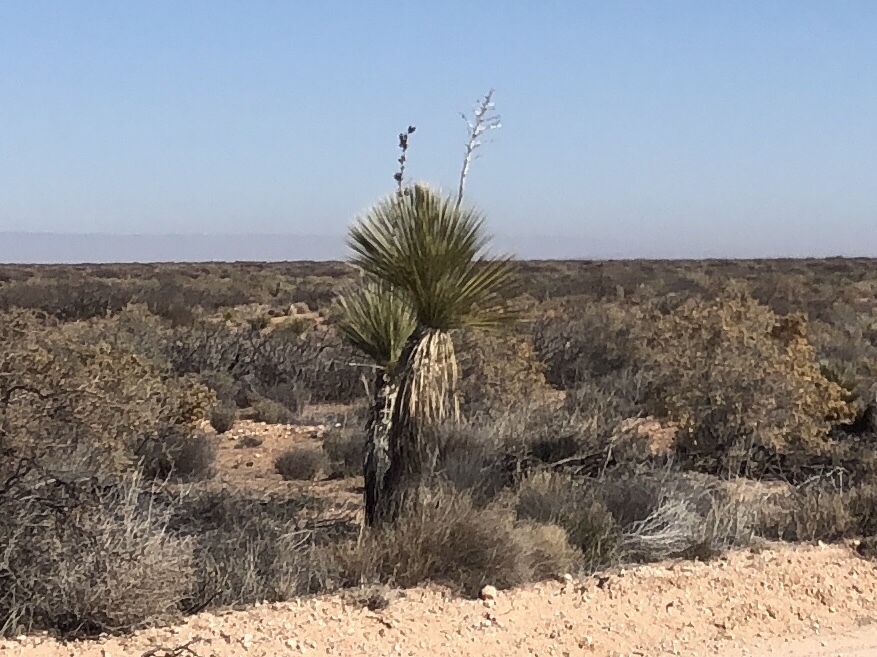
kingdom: Plantae
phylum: Tracheophyta
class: Liliopsida
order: Asparagales
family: Asparagaceae
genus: Yucca
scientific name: Yucca elata
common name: Palmella
